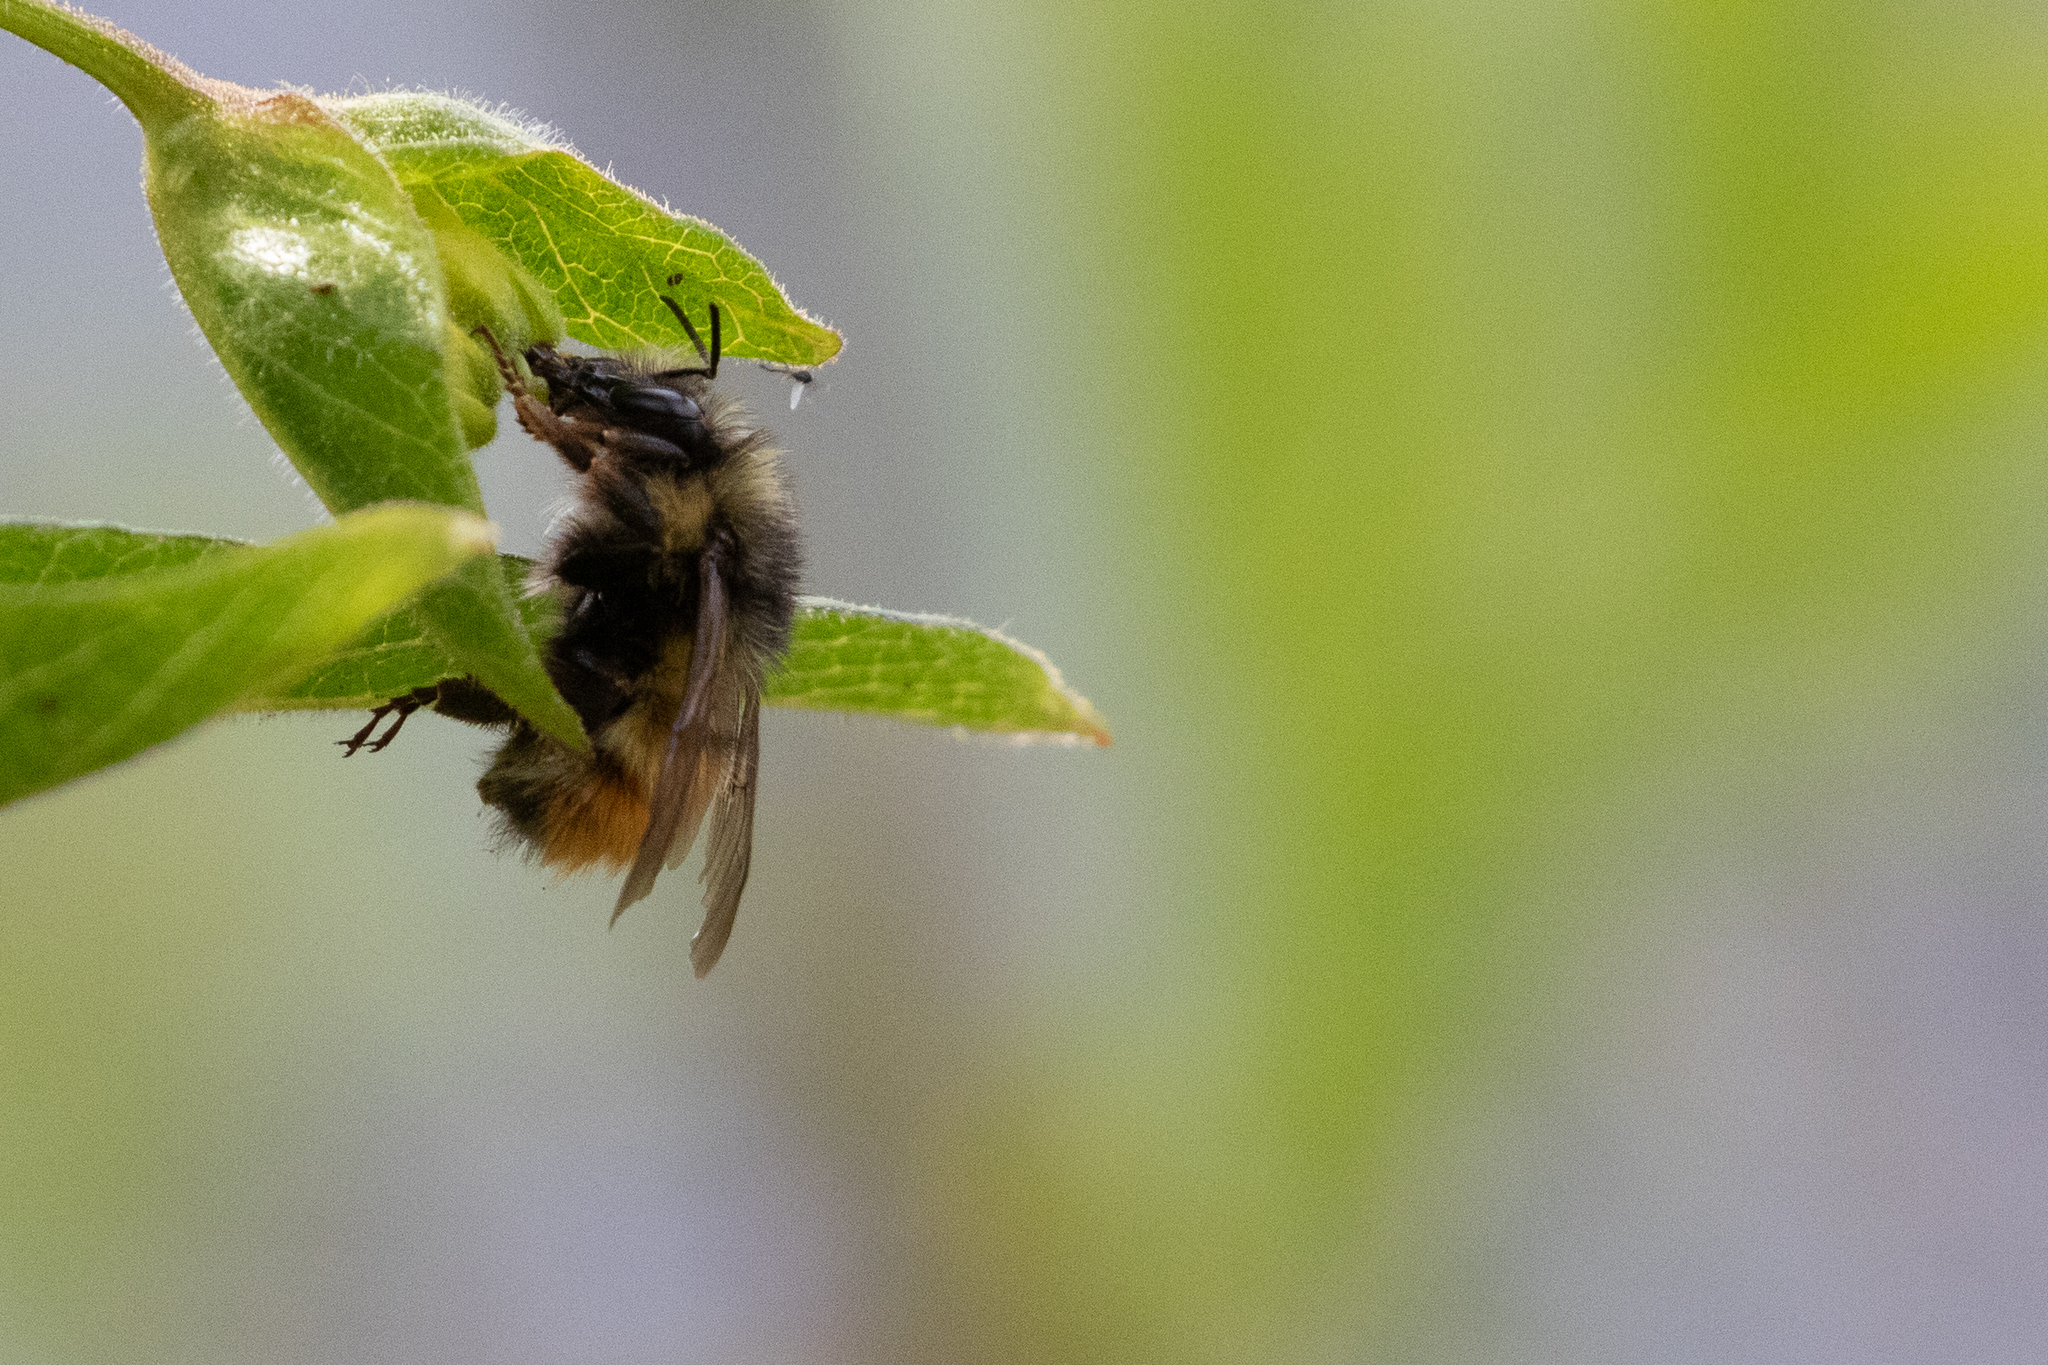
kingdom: Animalia
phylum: Arthropoda
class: Insecta
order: Hymenoptera
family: Apidae
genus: Bombus
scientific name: Bombus flavifrons
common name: Yellow head bumble bee
